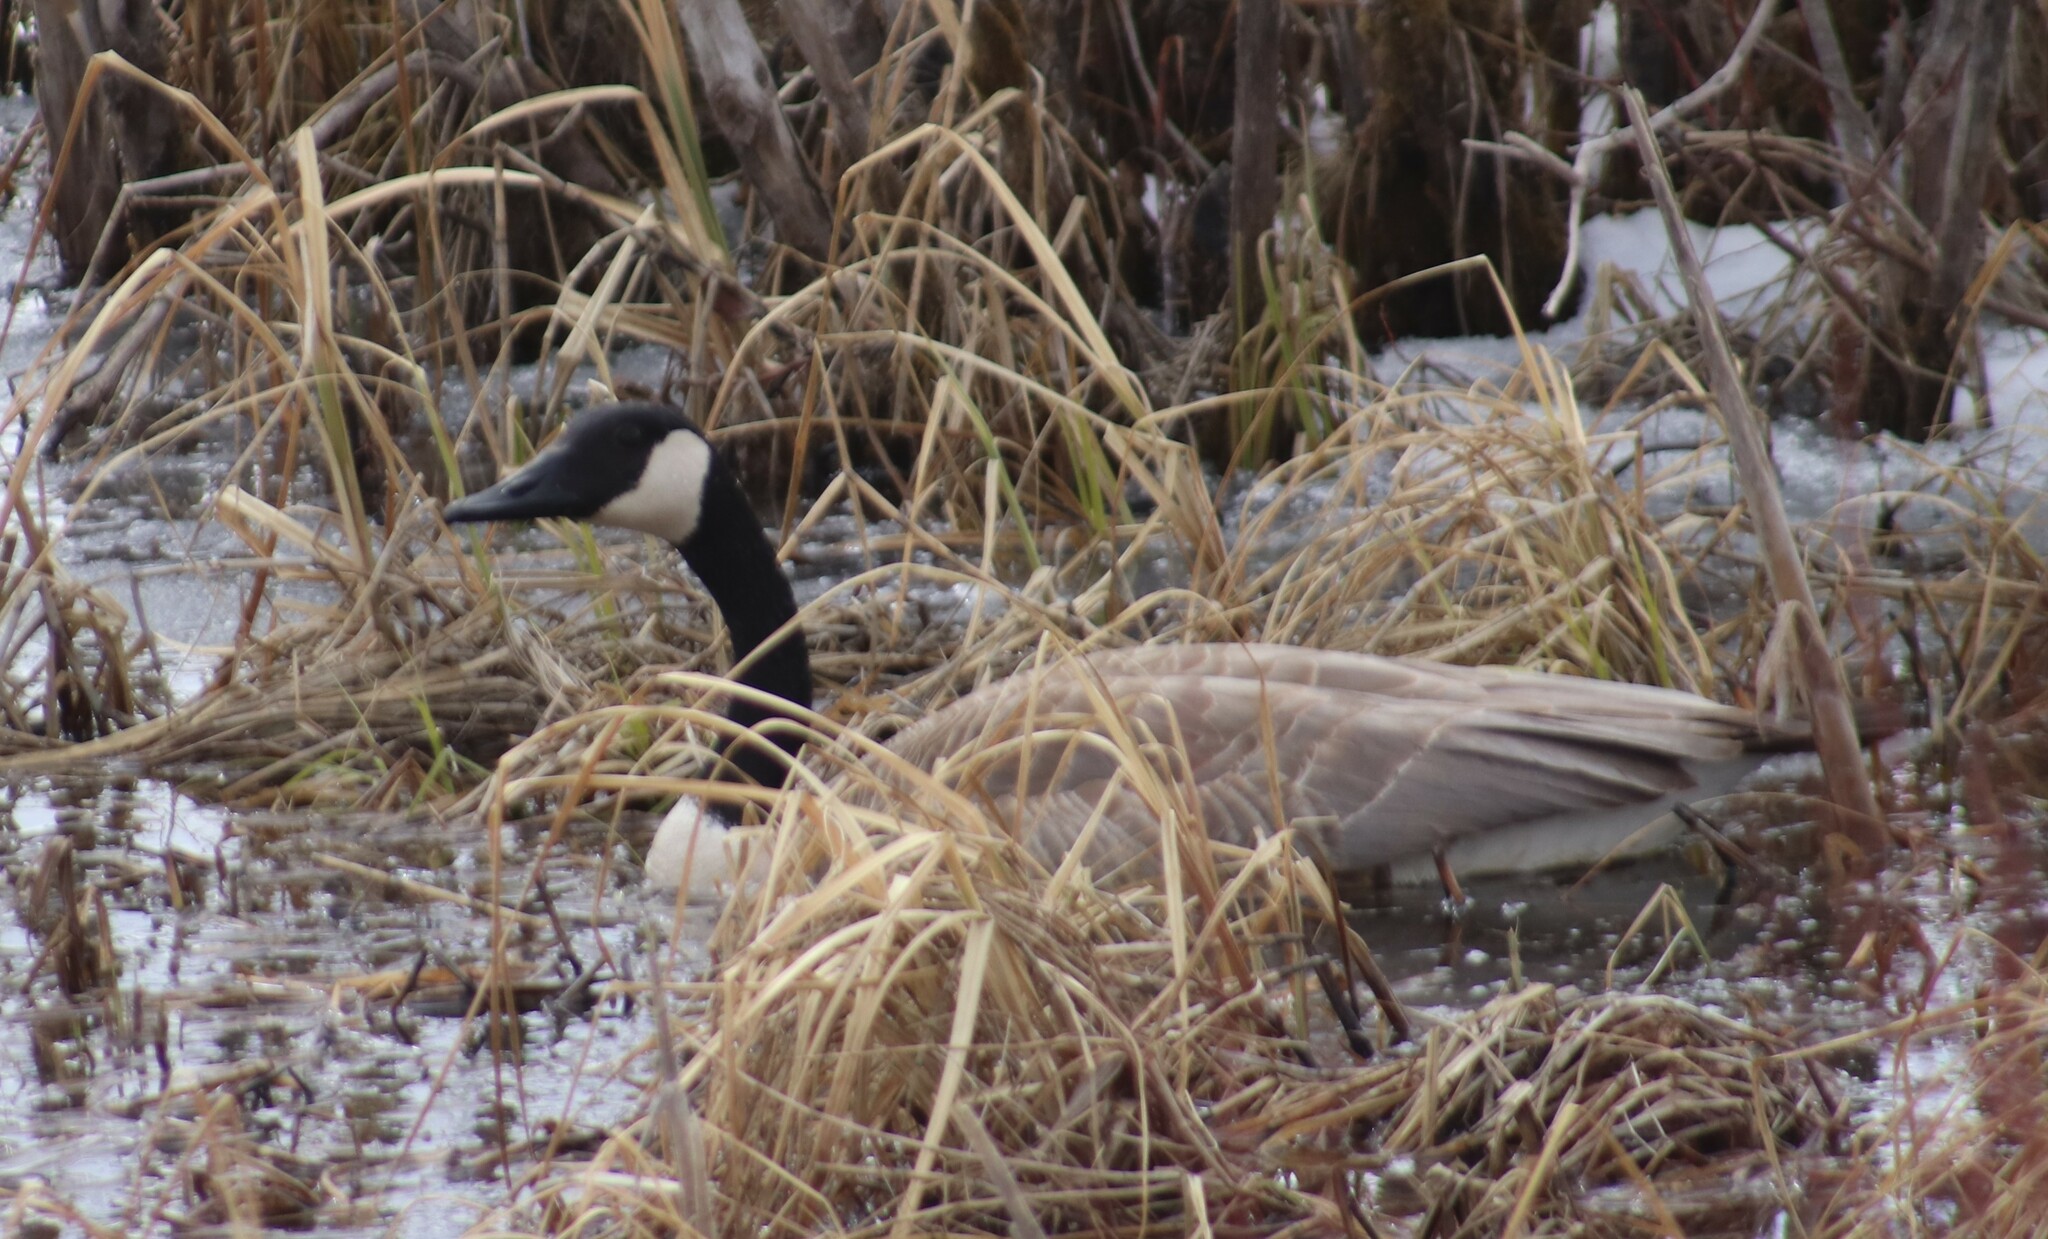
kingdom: Animalia
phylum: Chordata
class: Aves
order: Anseriformes
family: Anatidae
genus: Branta
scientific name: Branta canadensis
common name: Canada goose
